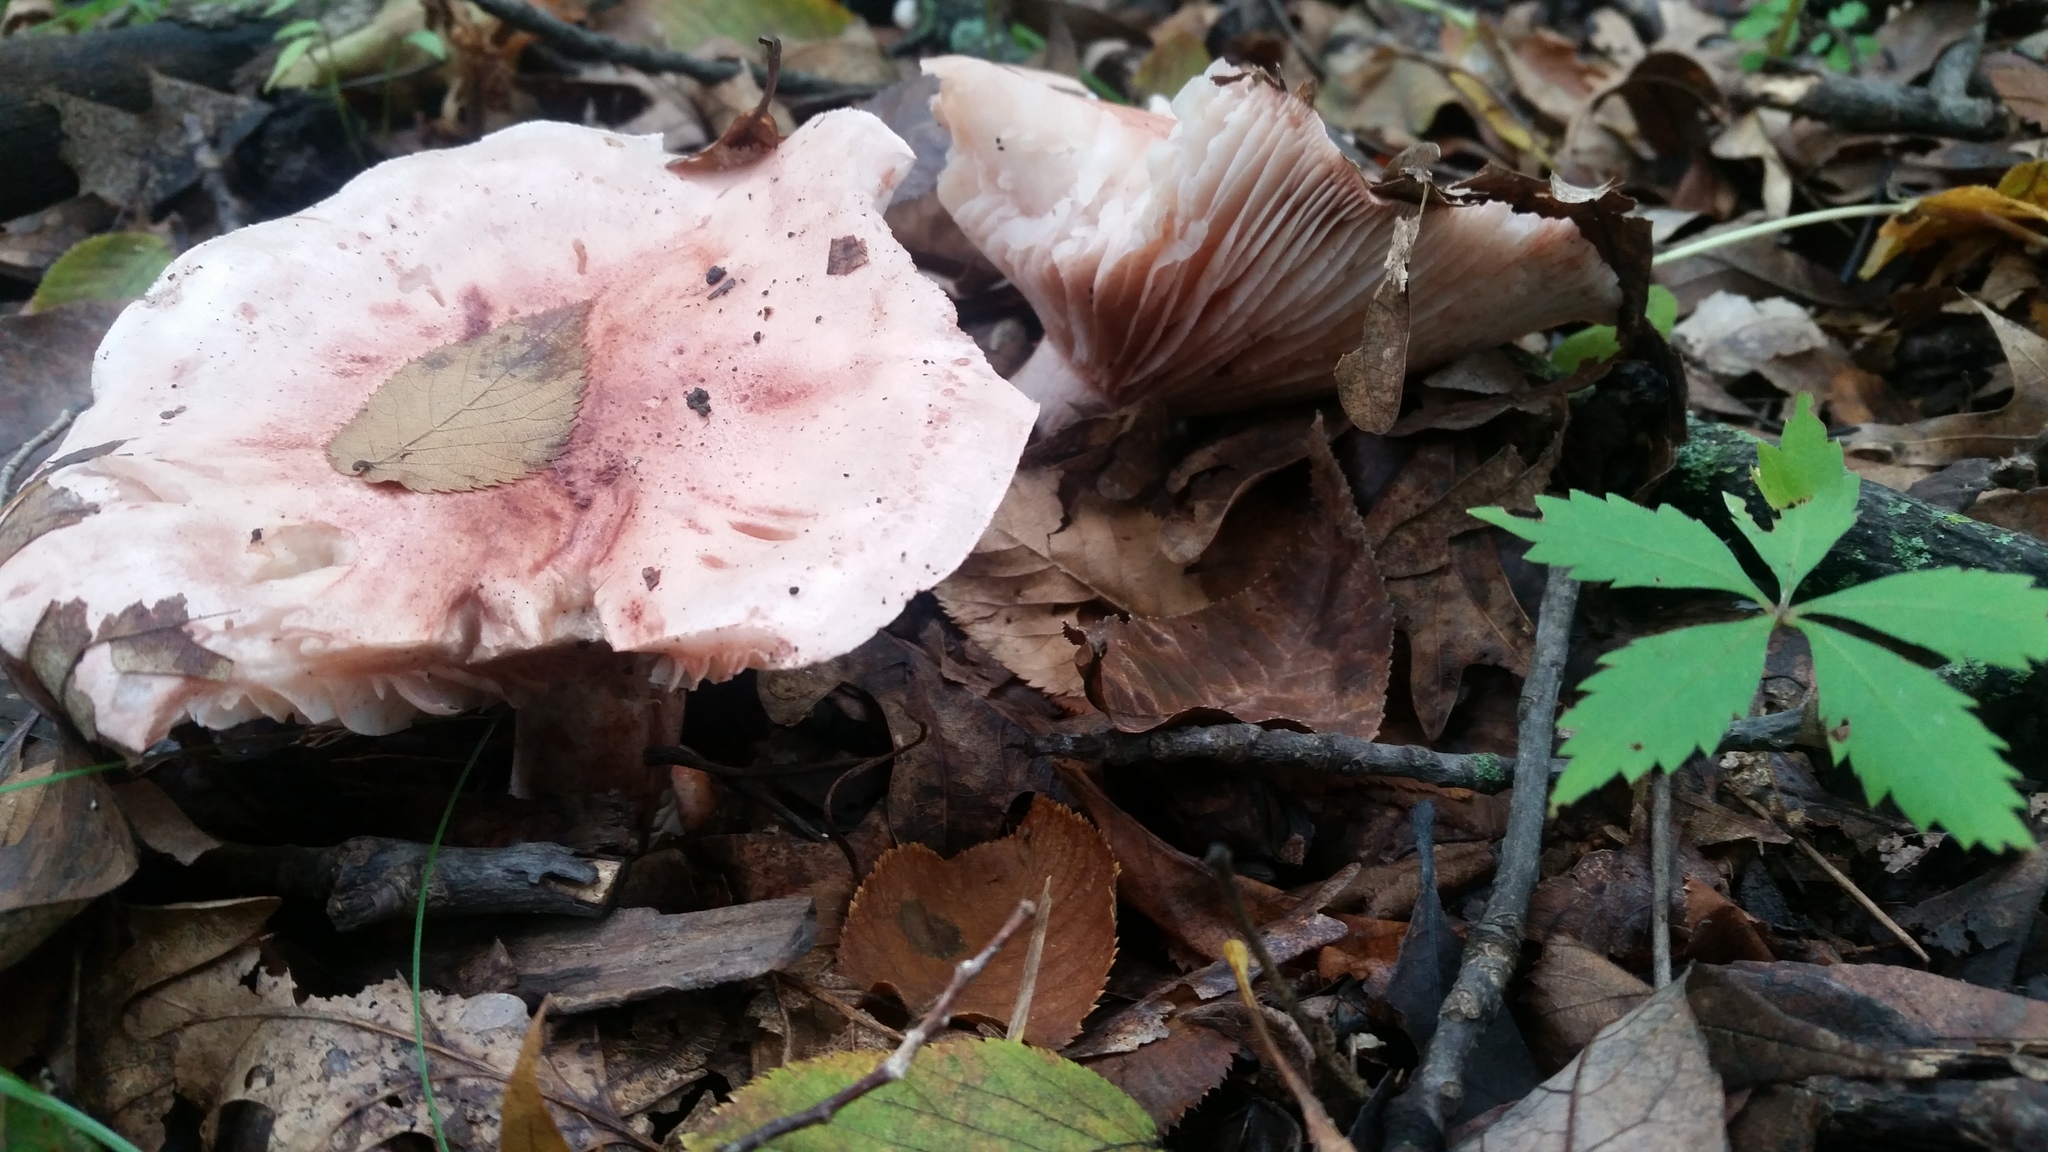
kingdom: Fungi
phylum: Basidiomycota
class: Agaricomycetes
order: Agaricales
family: Hygrophoraceae
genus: Hygrophorus
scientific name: Hygrophorus russula
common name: Pinkmottle woodwax
